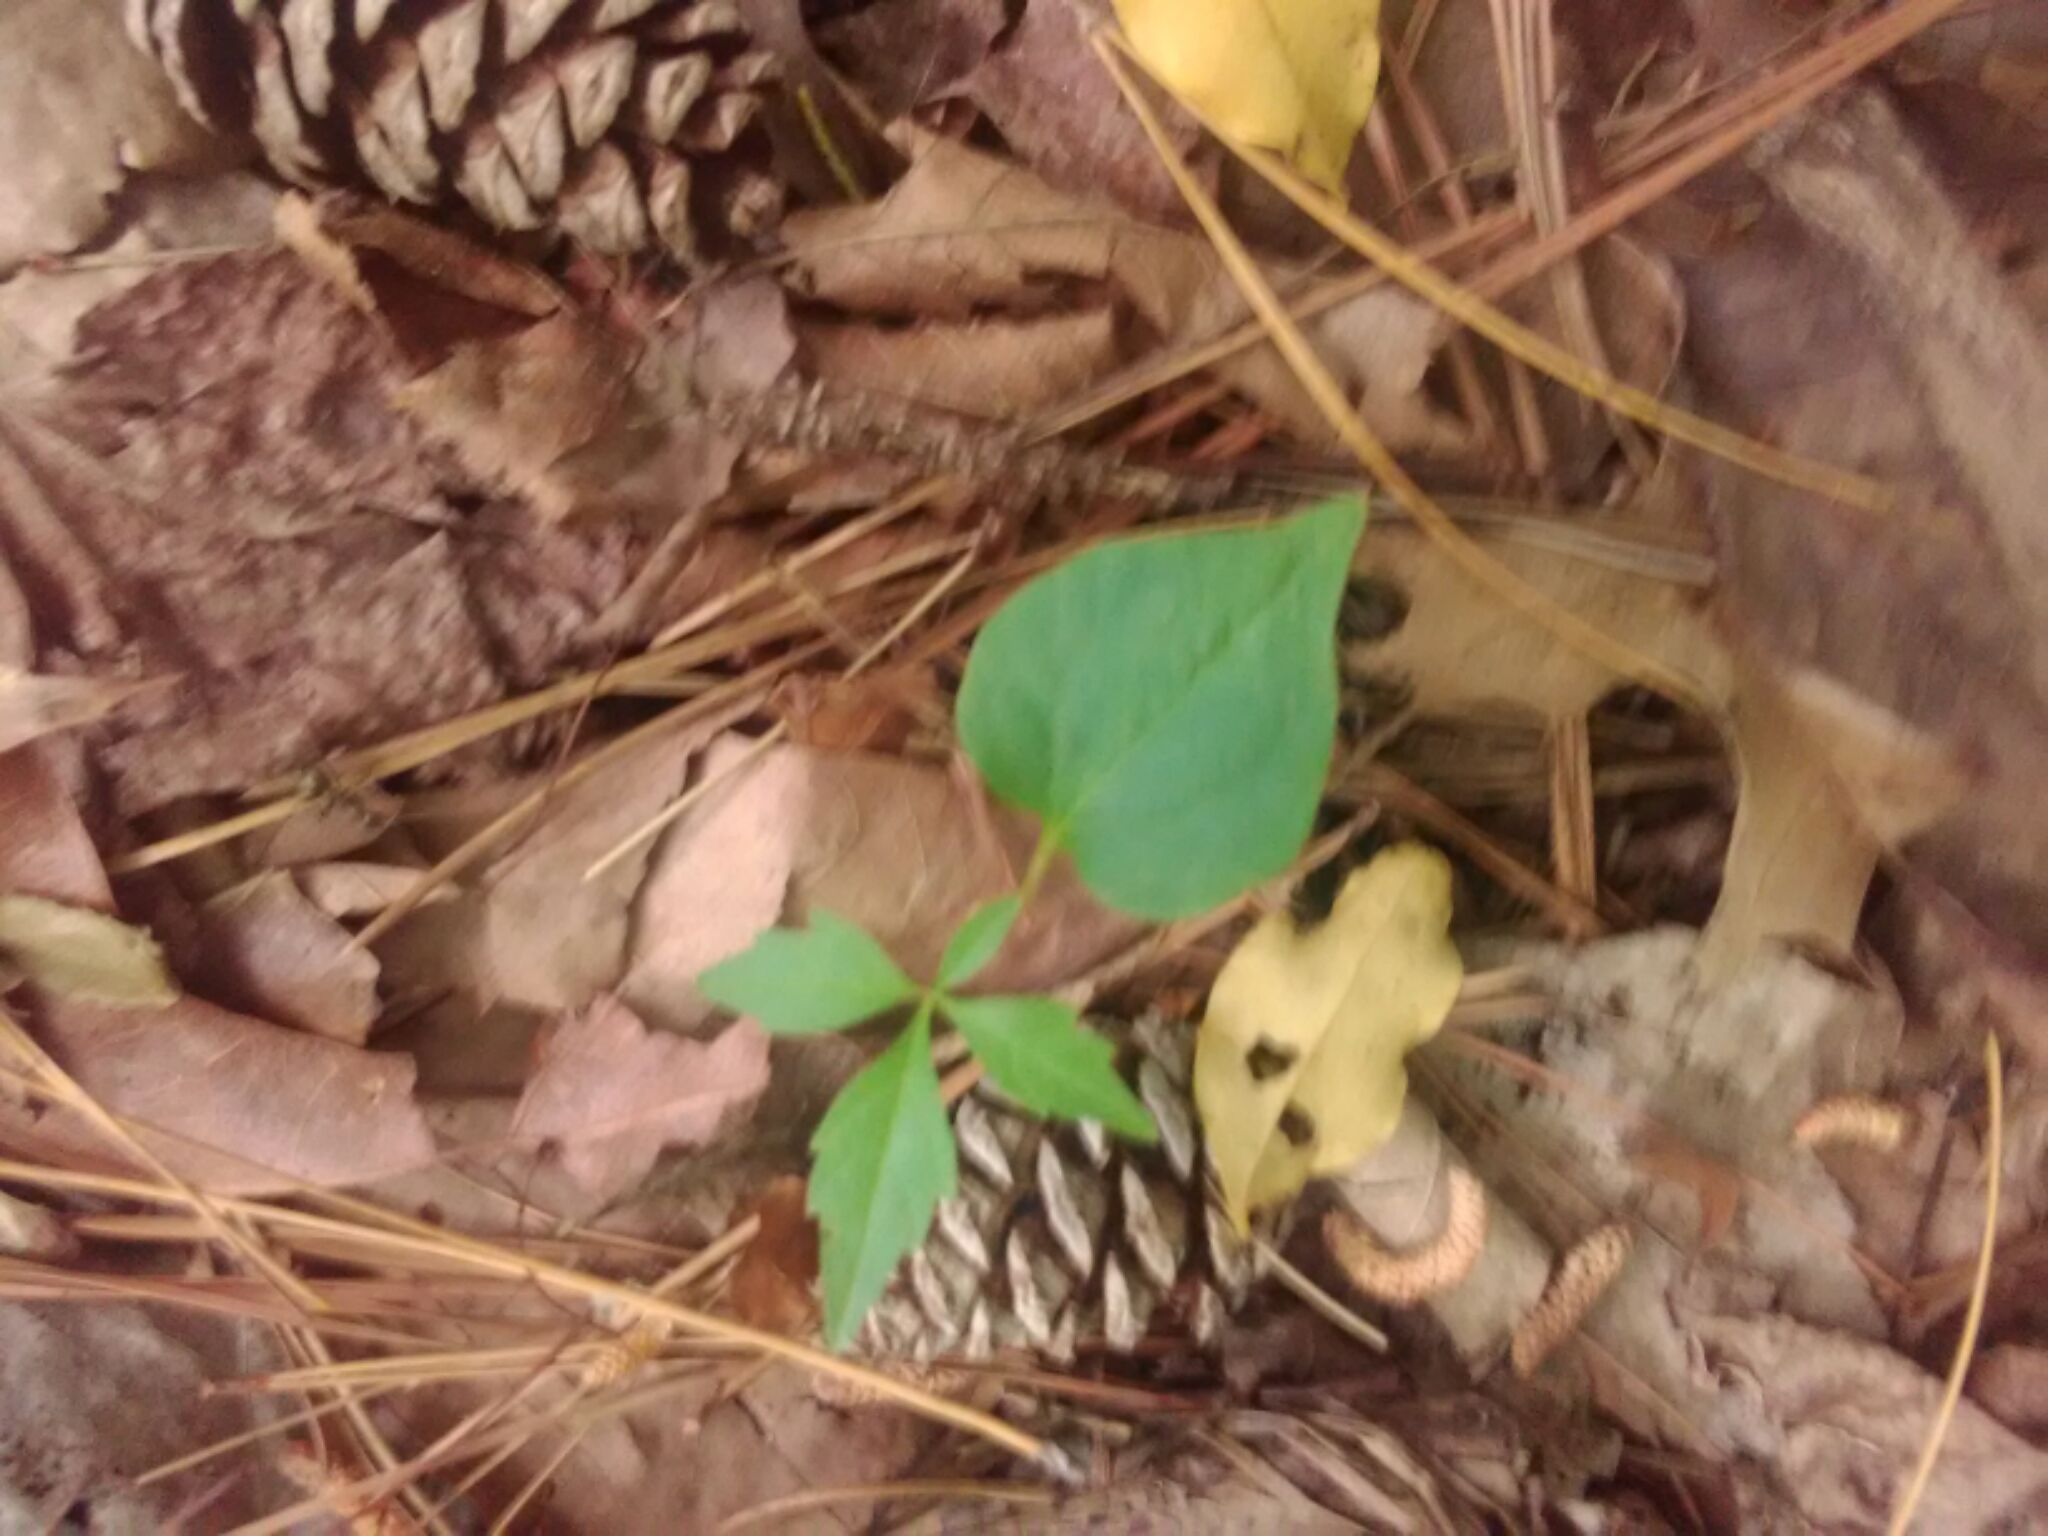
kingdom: Plantae
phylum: Tracheophyta
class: Magnoliopsida
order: Vitales
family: Vitaceae
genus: Parthenocissus
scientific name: Parthenocissus quinquefolia
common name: Virginia-creeper
